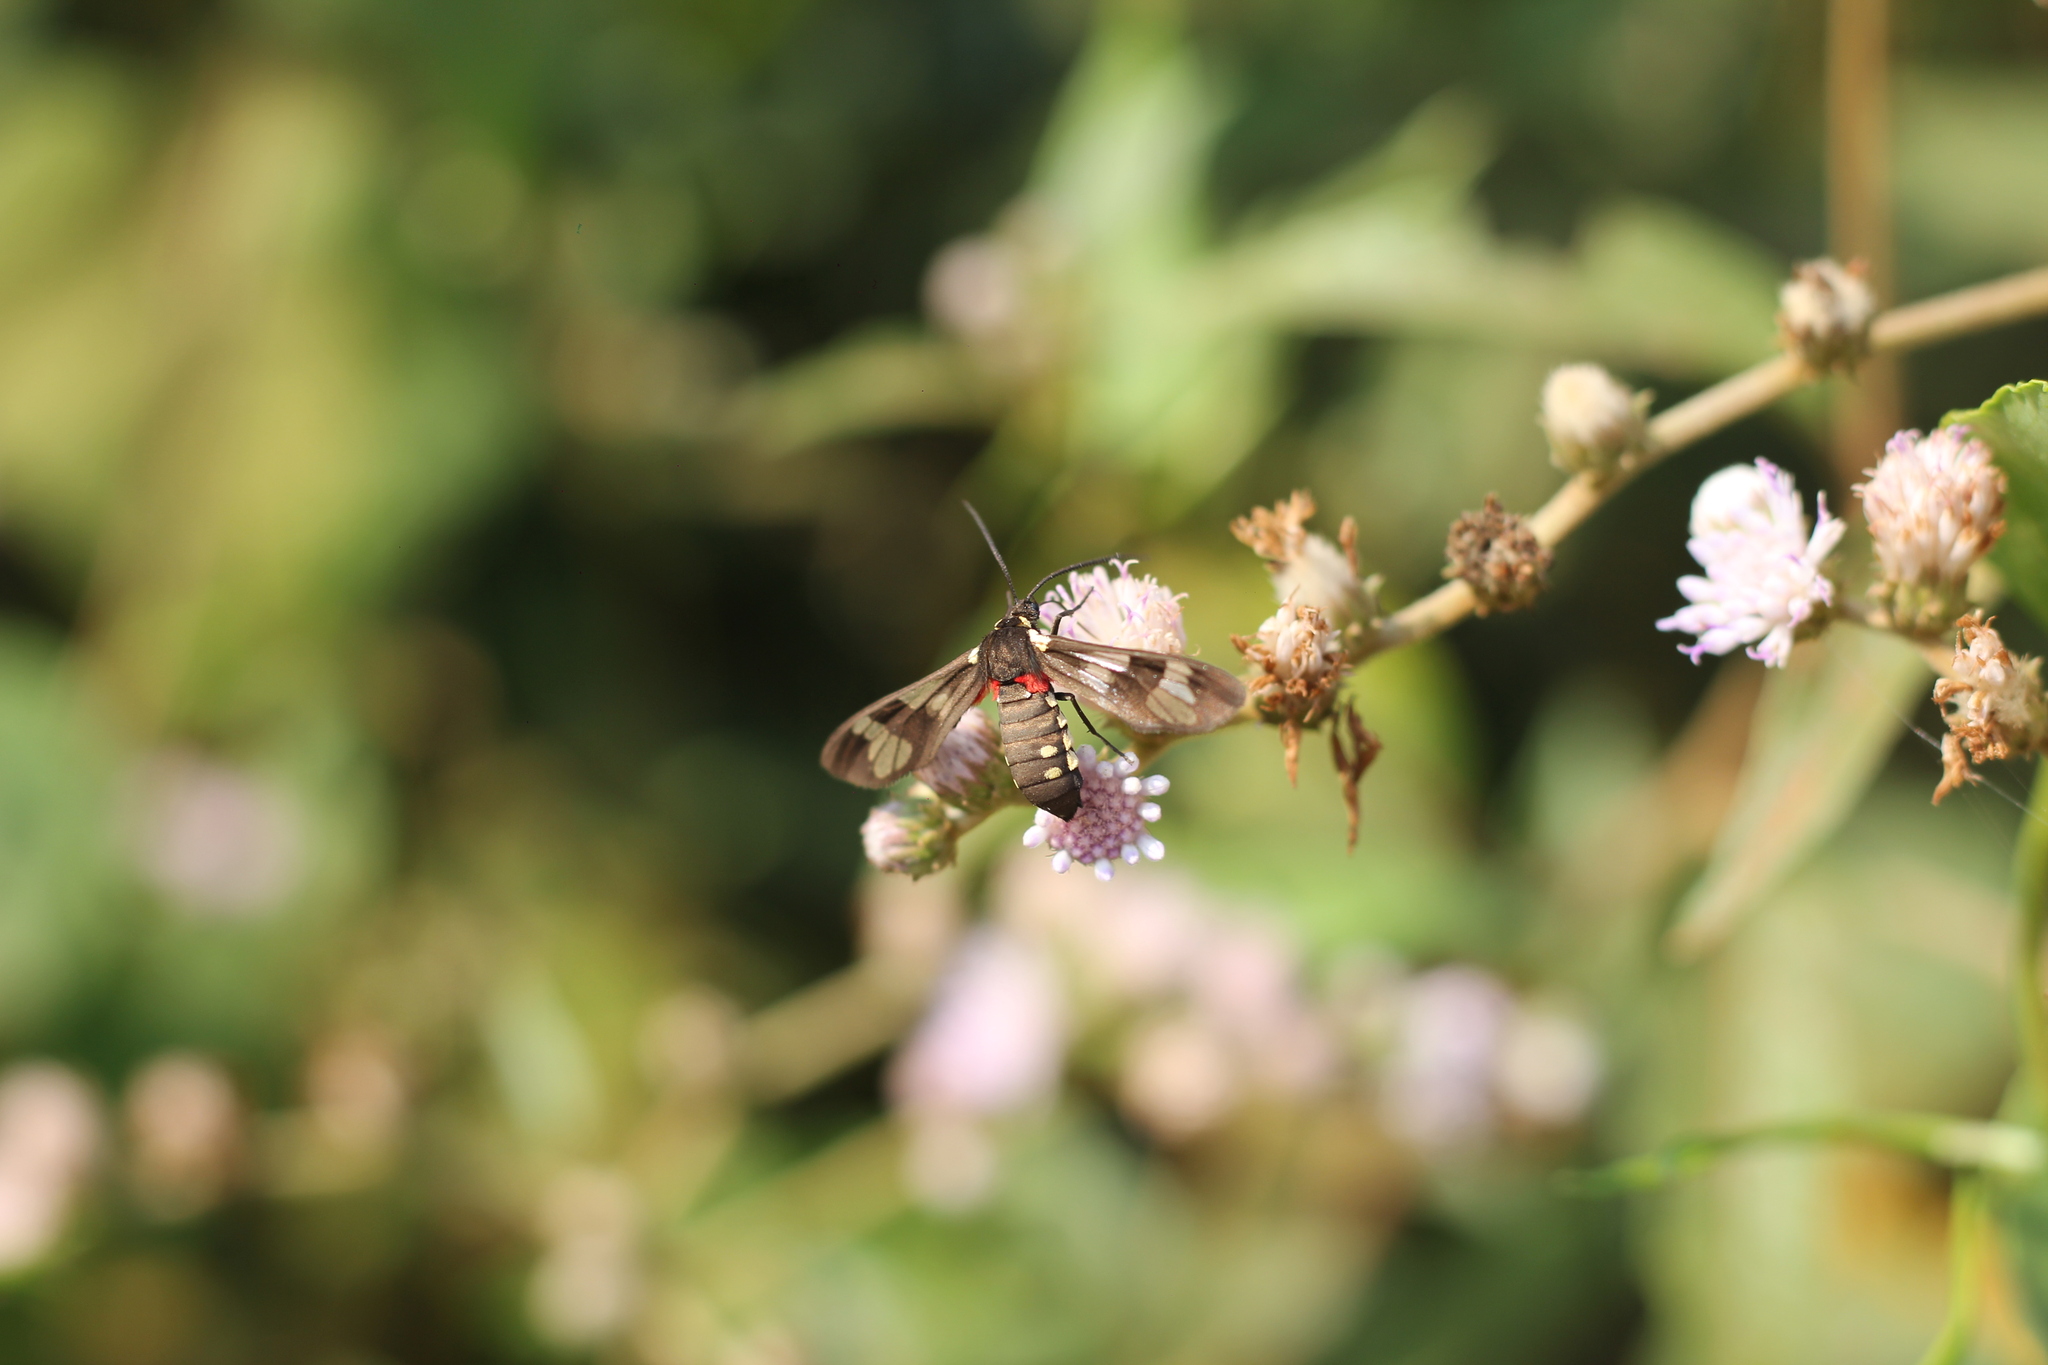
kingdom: Animalia
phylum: Arthropoda
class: Insecta
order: Lepidoptera
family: Erebidae
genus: Eurata
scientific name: Eurata hermione
